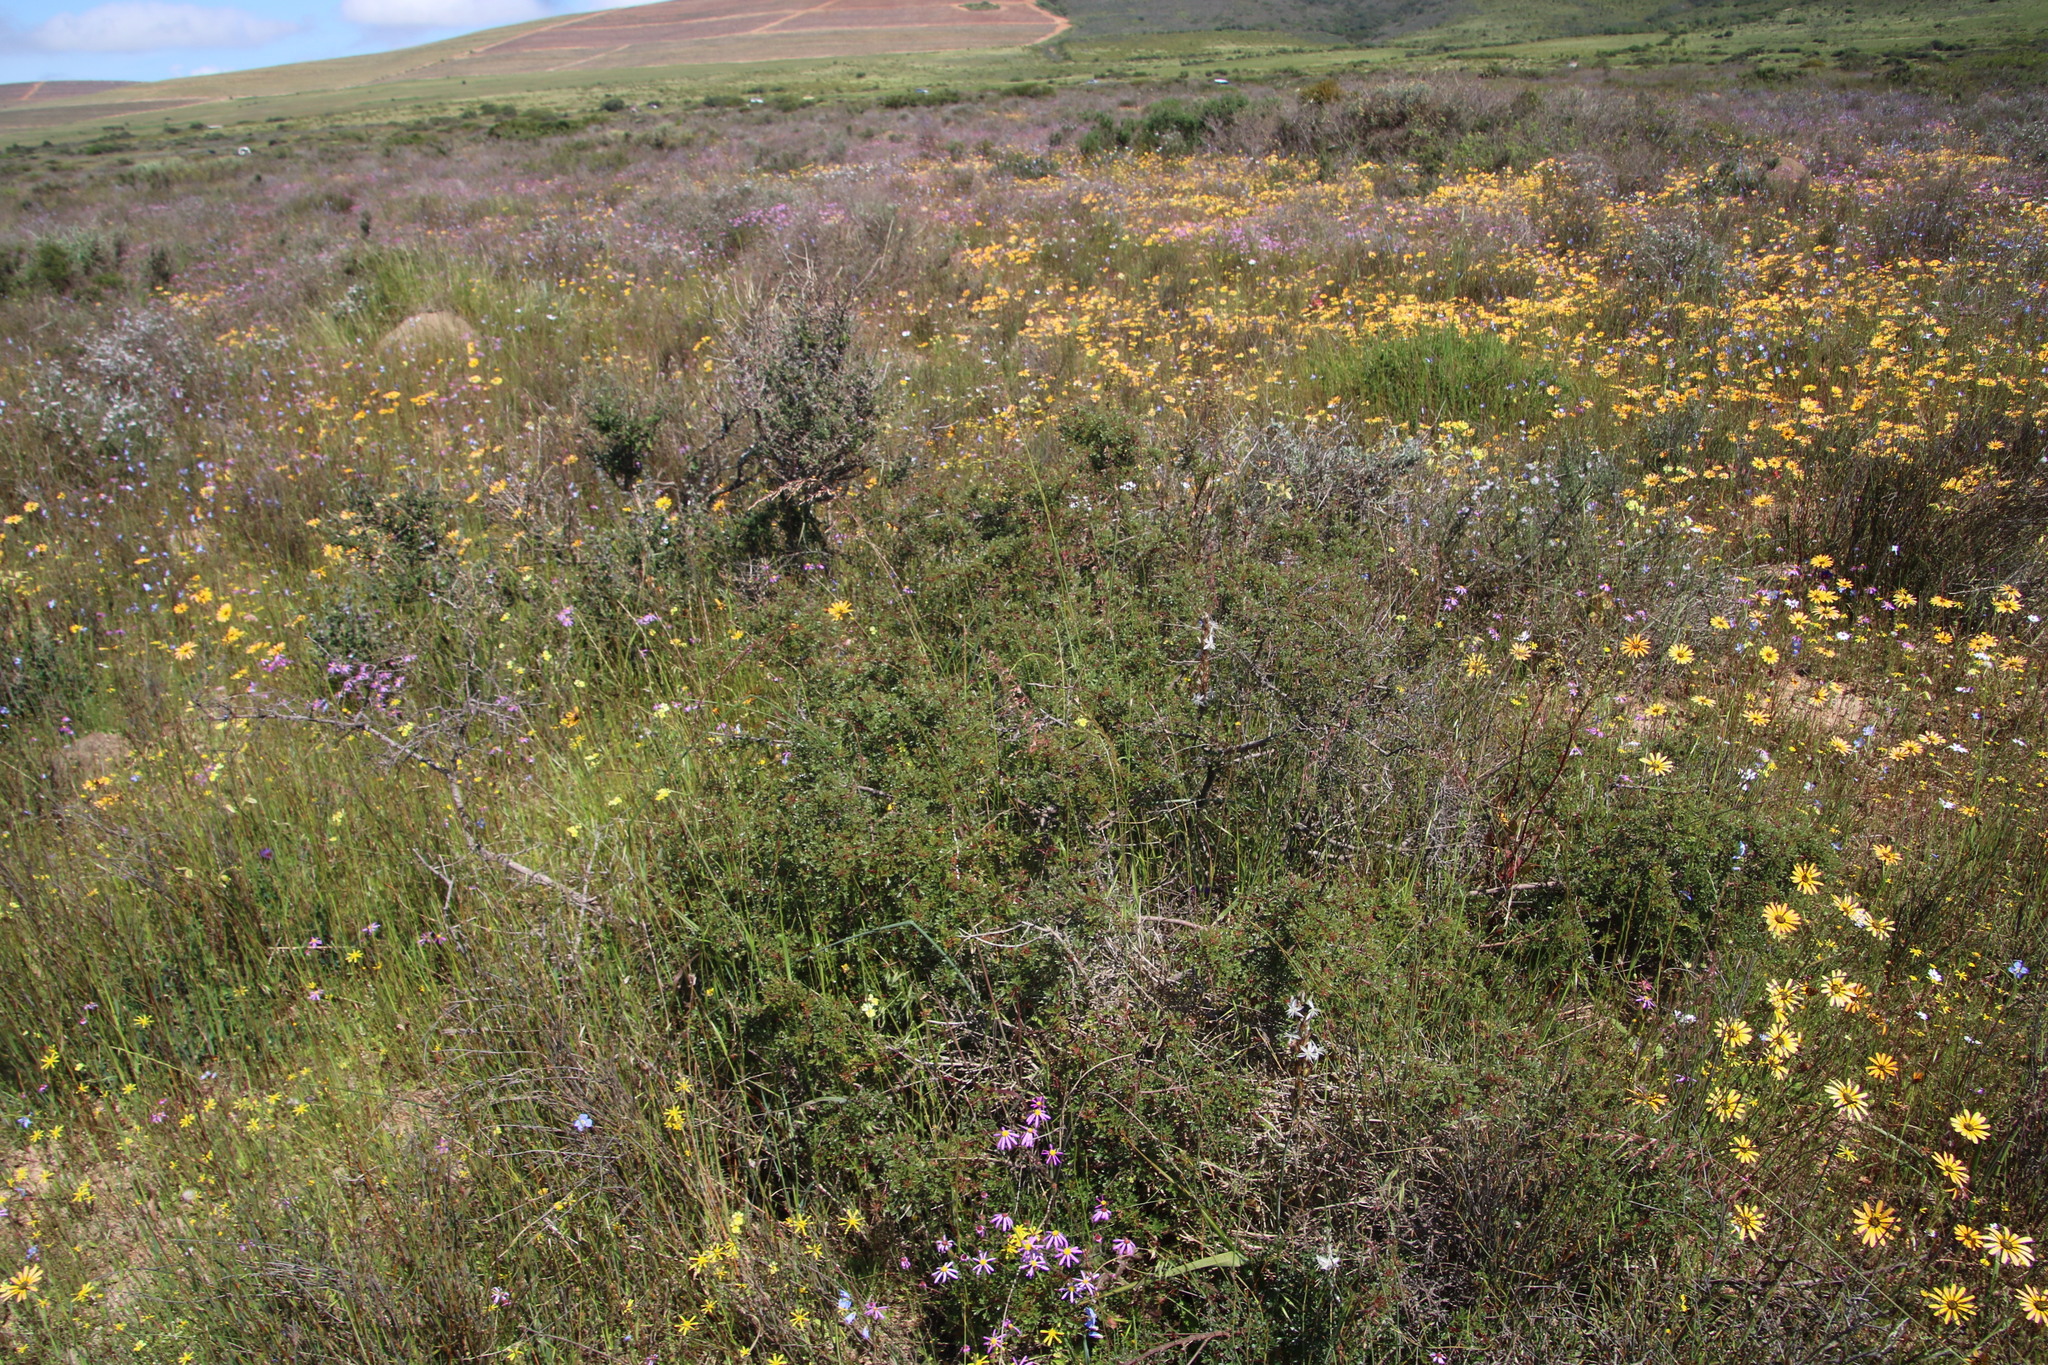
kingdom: Plantae
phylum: Tracheophyta
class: Magnoliopsida
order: Sapindales
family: Anacardiaceae
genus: Searsia
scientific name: Searsia dissecta
